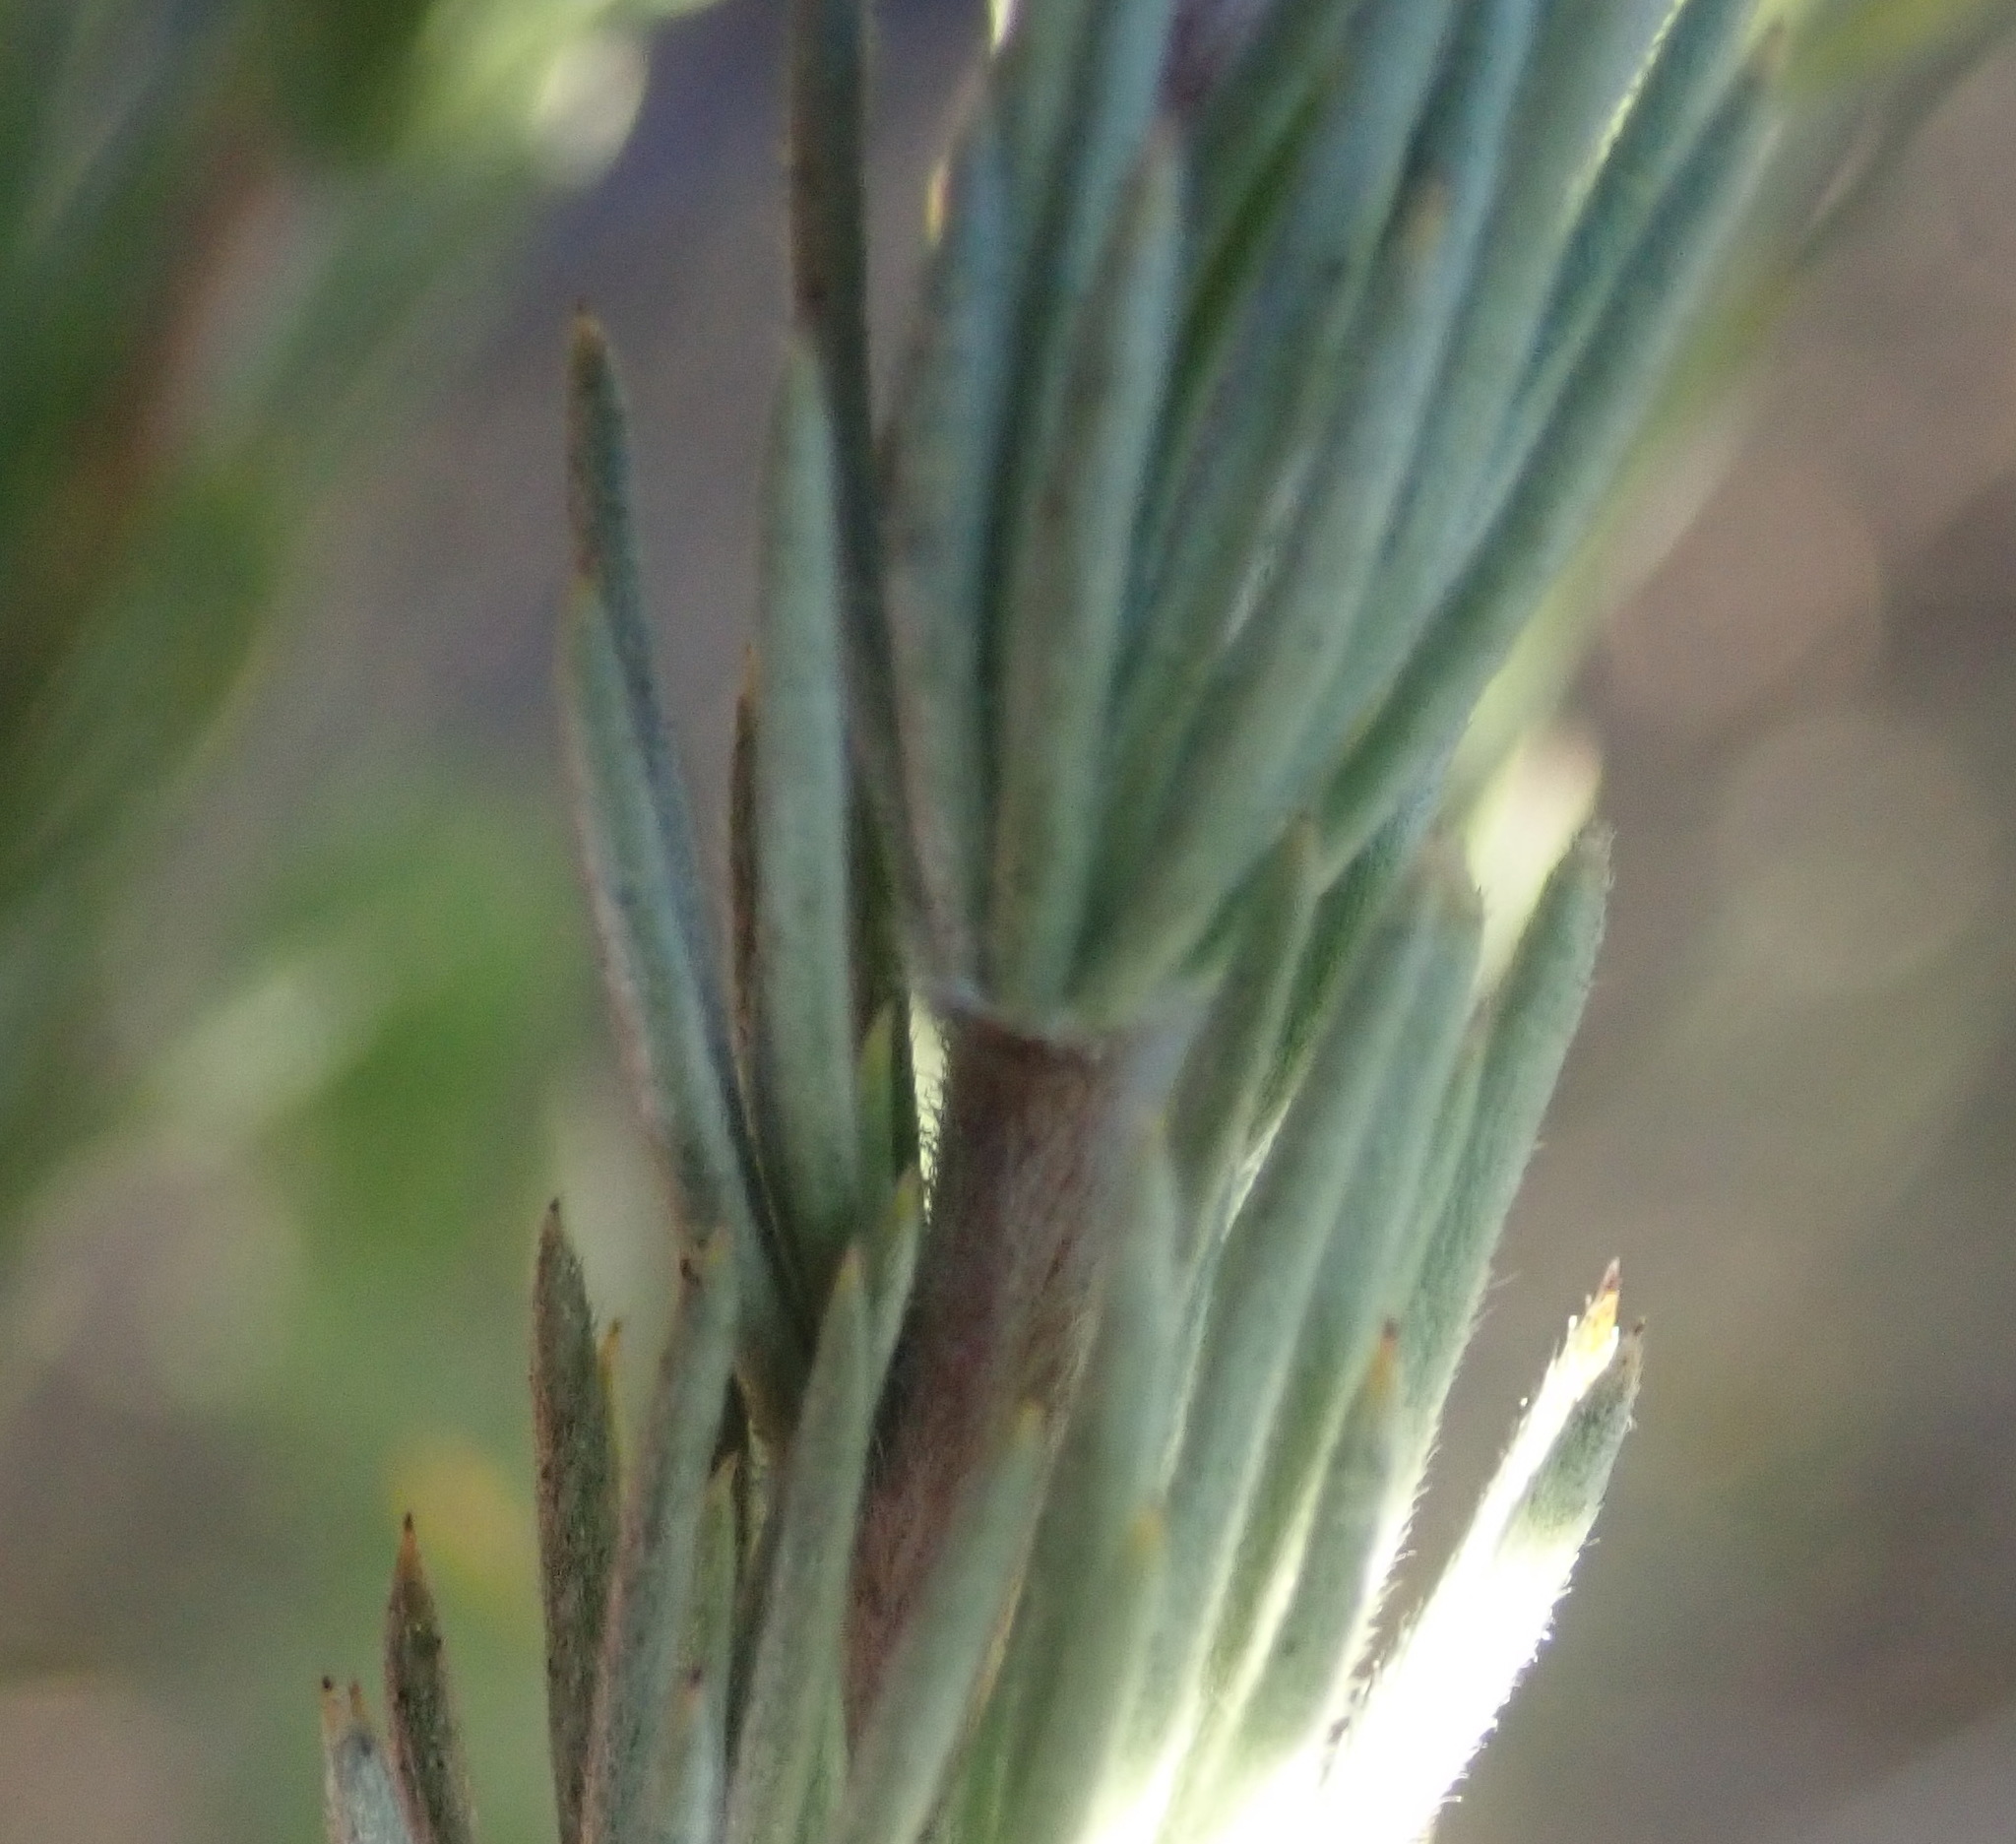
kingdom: Plantae
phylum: Tracheophyta
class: Magnoliopsida
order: Fabales
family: Fabaceae
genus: Aspalathus
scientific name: Aspalathus glabrescens
